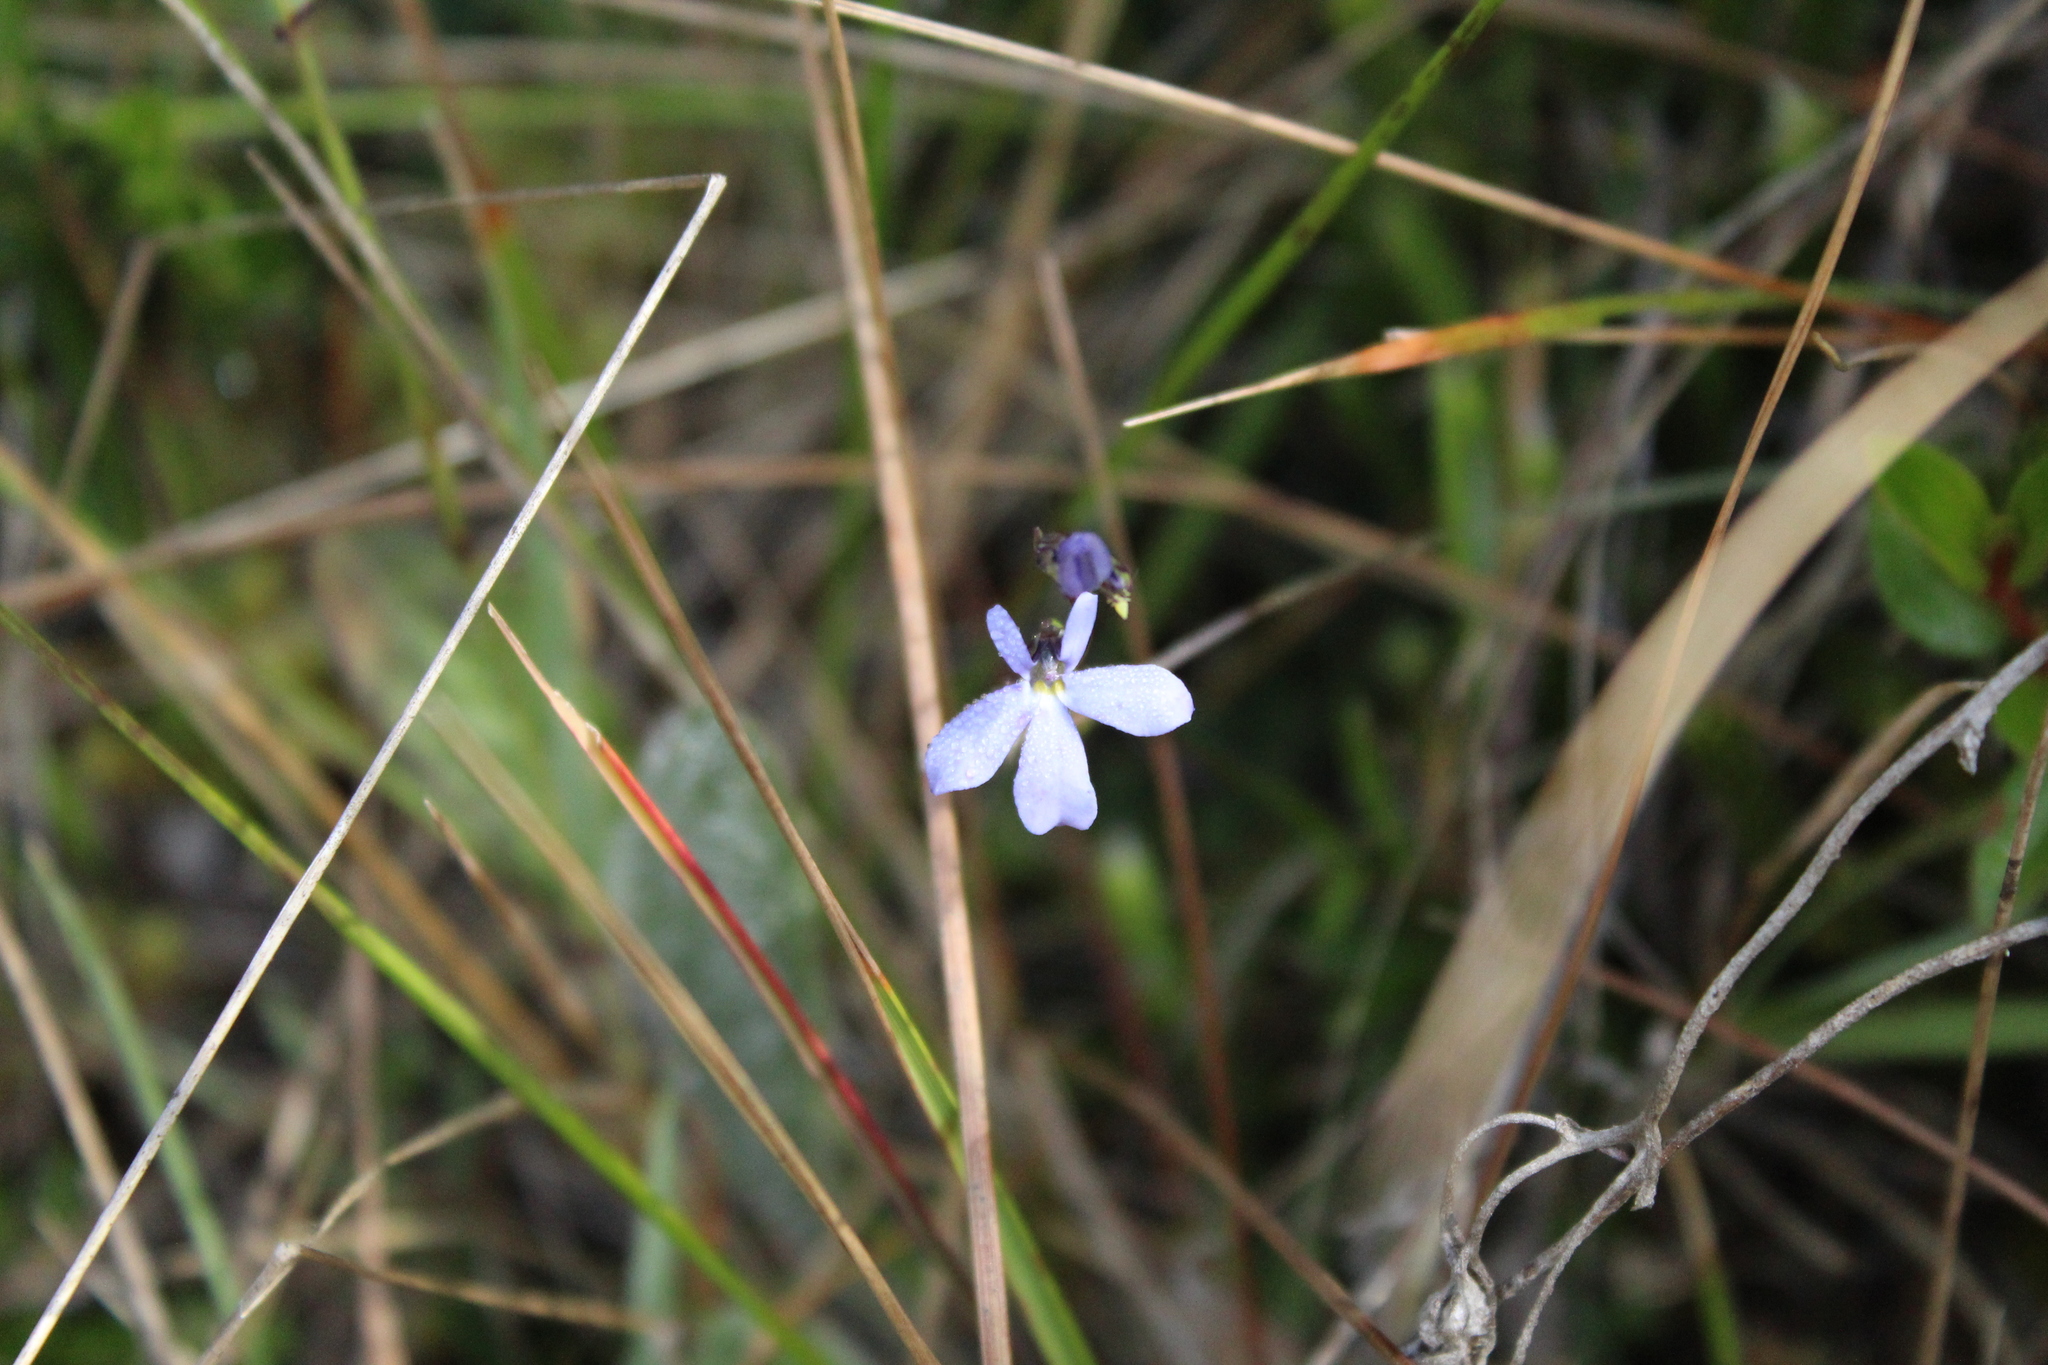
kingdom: Plantae
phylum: Tracheophyta
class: Magnoliopsida
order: Asterales
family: Campanulaceae
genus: Lobelia
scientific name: Lobelia tenera
